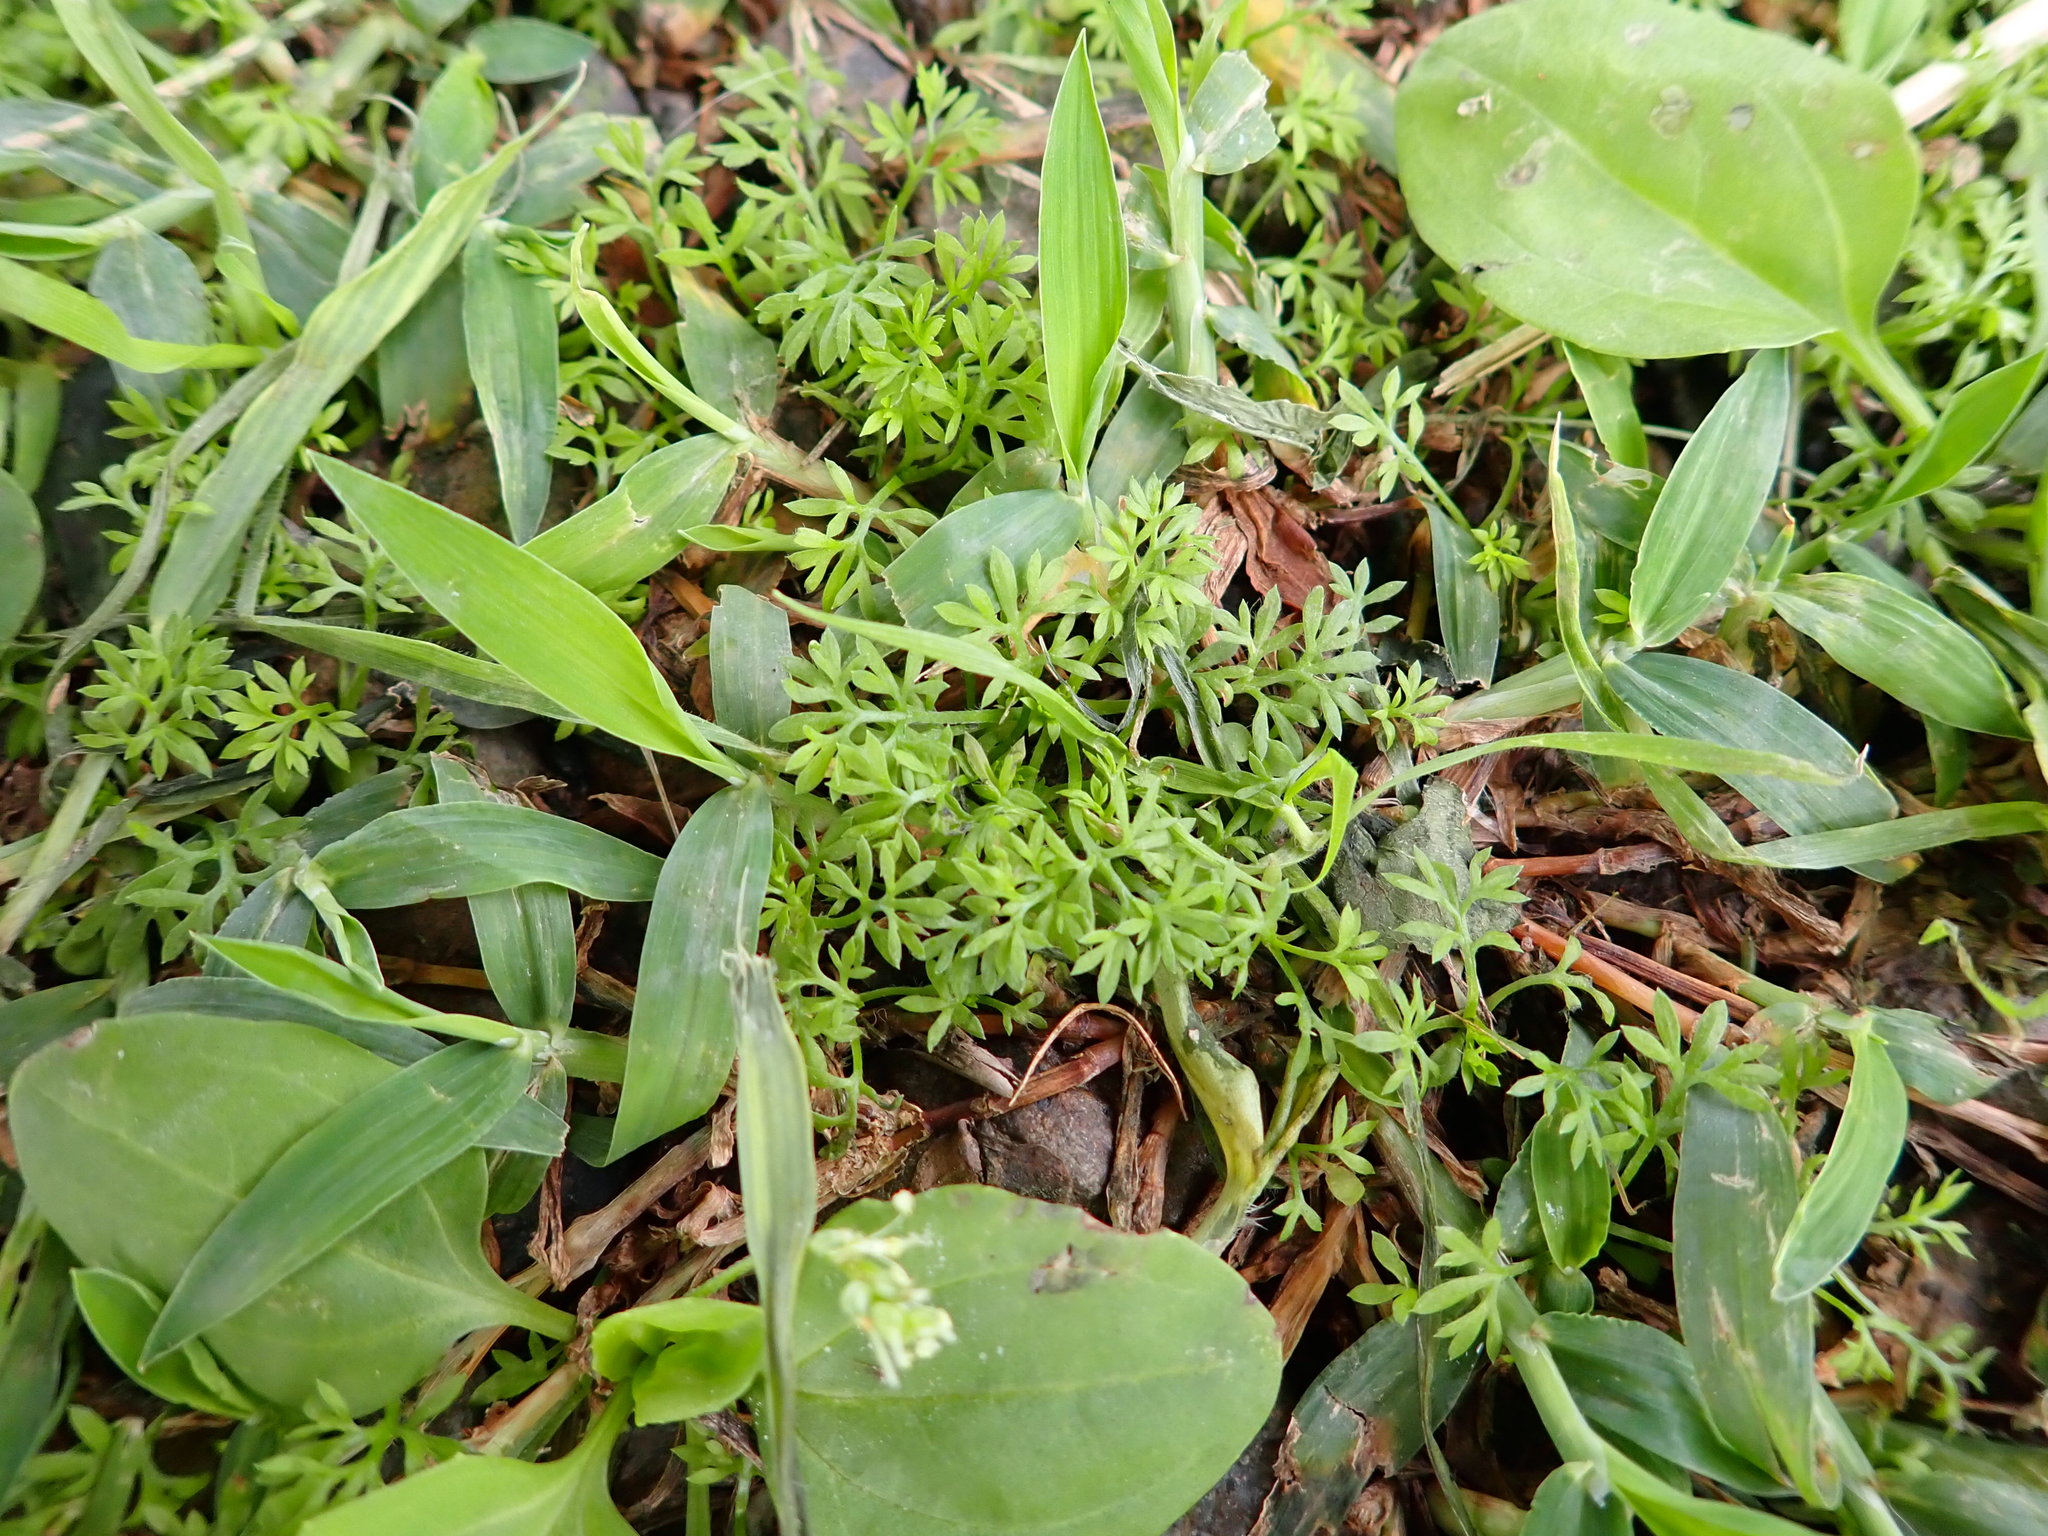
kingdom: Plantae
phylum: Tracheophyta
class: Magnoliopsida
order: Asterales
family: Asteraceae
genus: Soliva
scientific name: Soliva anthemifolia
